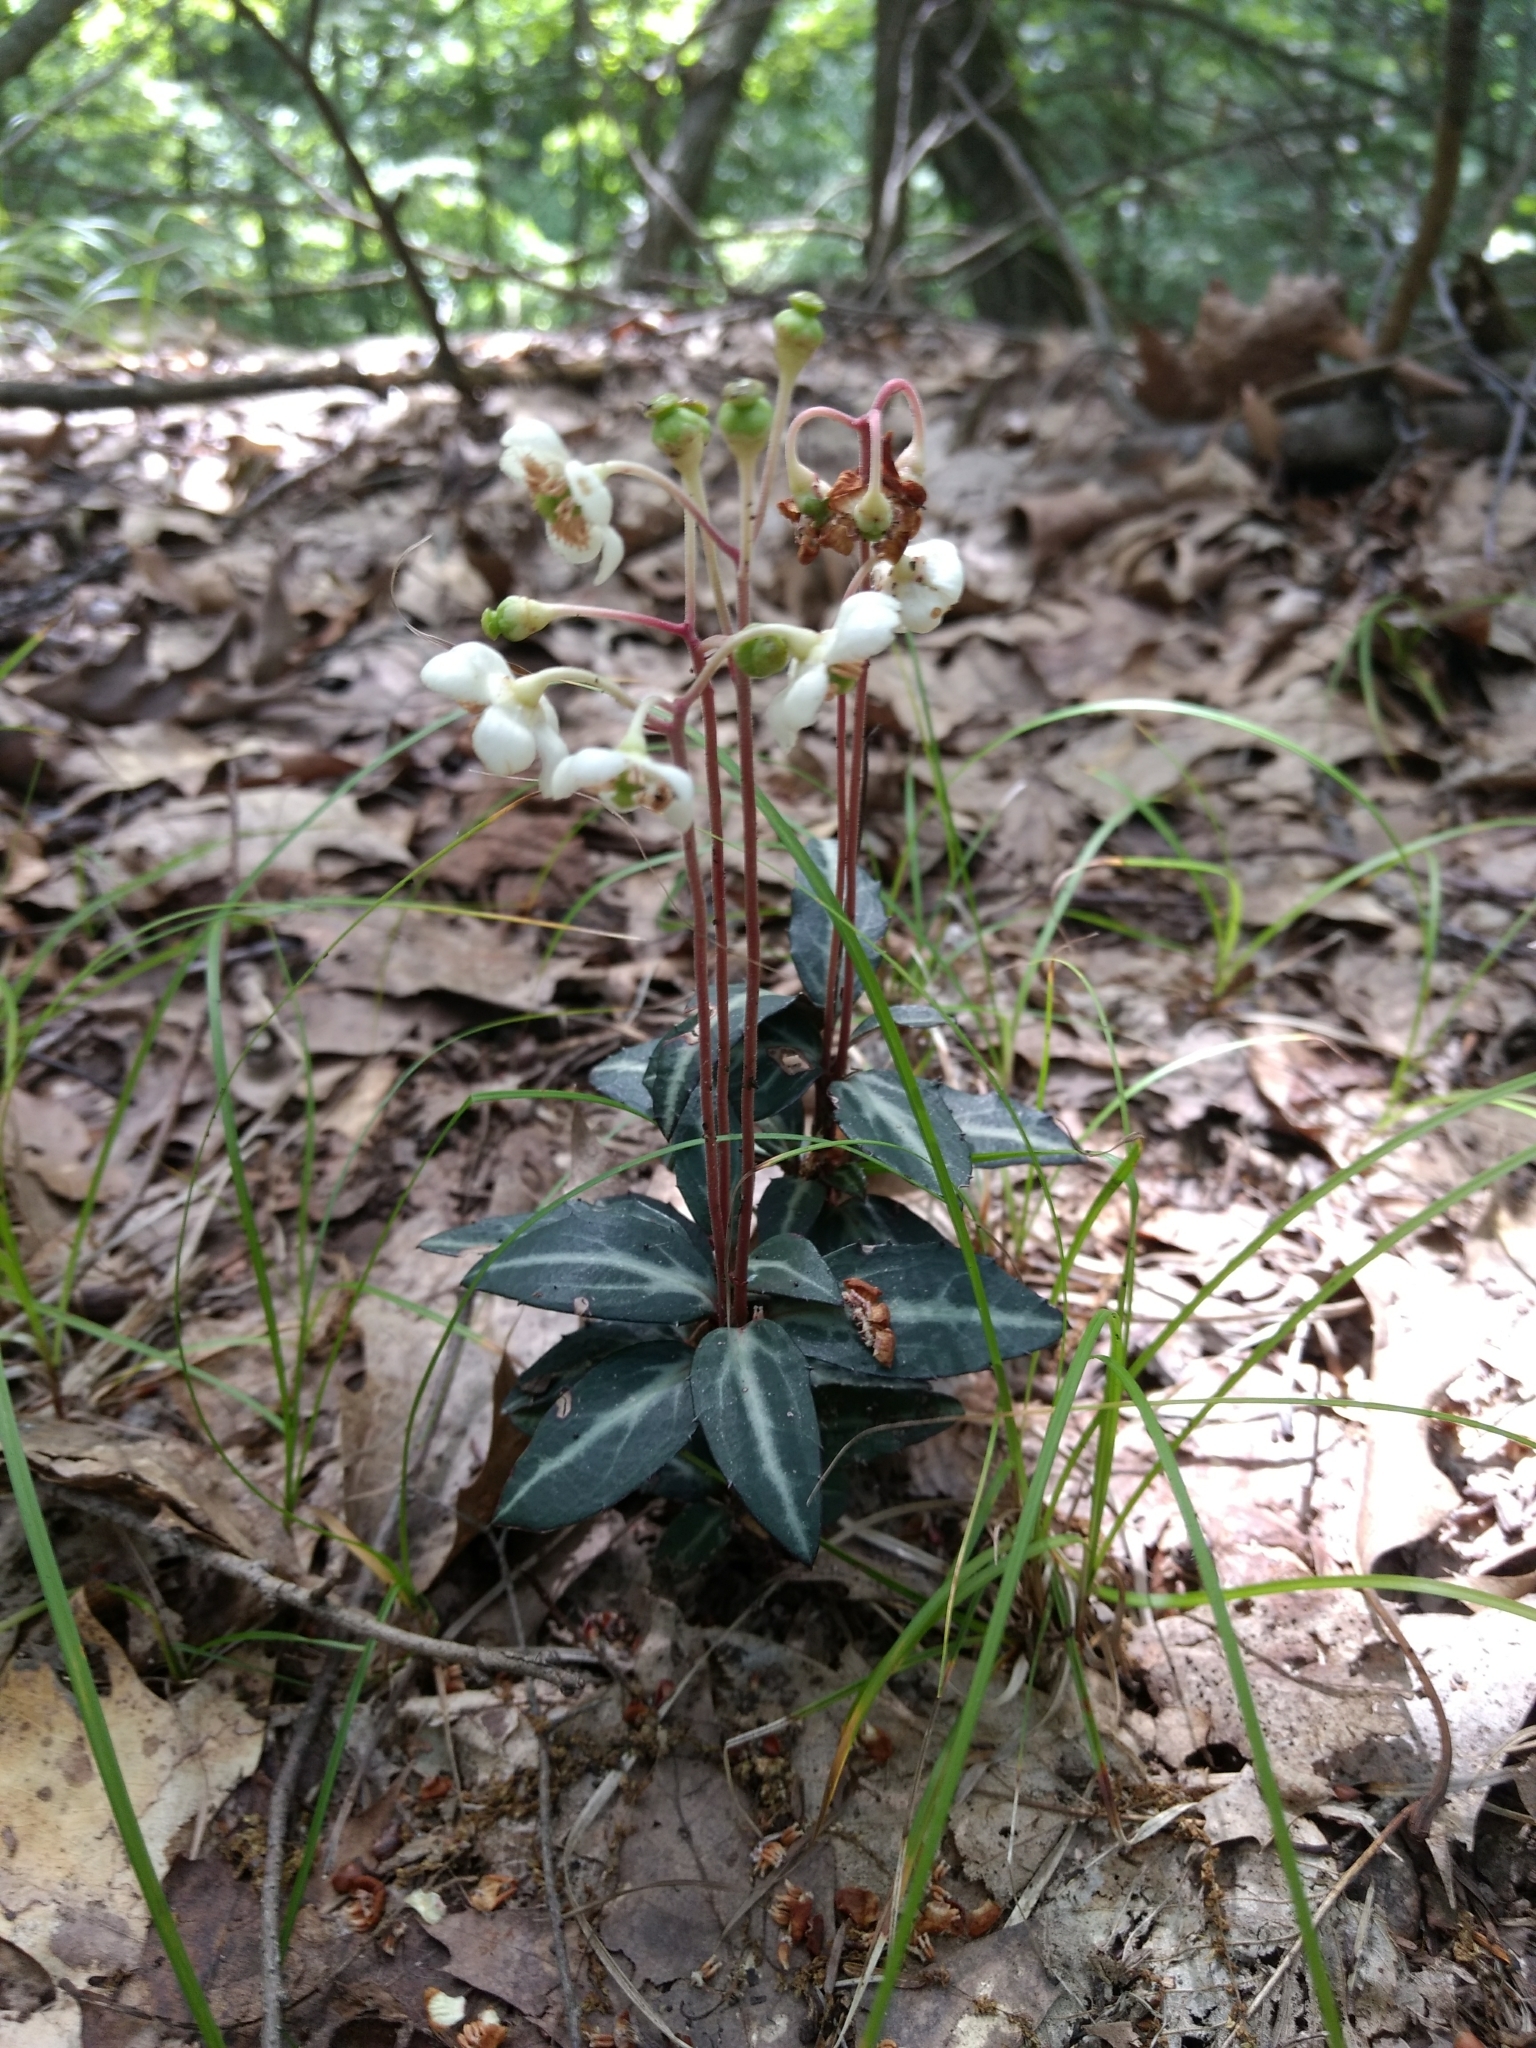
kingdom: Plantae
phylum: Tracheophyta
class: Magnoliopsida
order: Ericales
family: Ericaceae
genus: Chimaphila
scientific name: Chimaphila maculata
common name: Spotted pipsissewa
